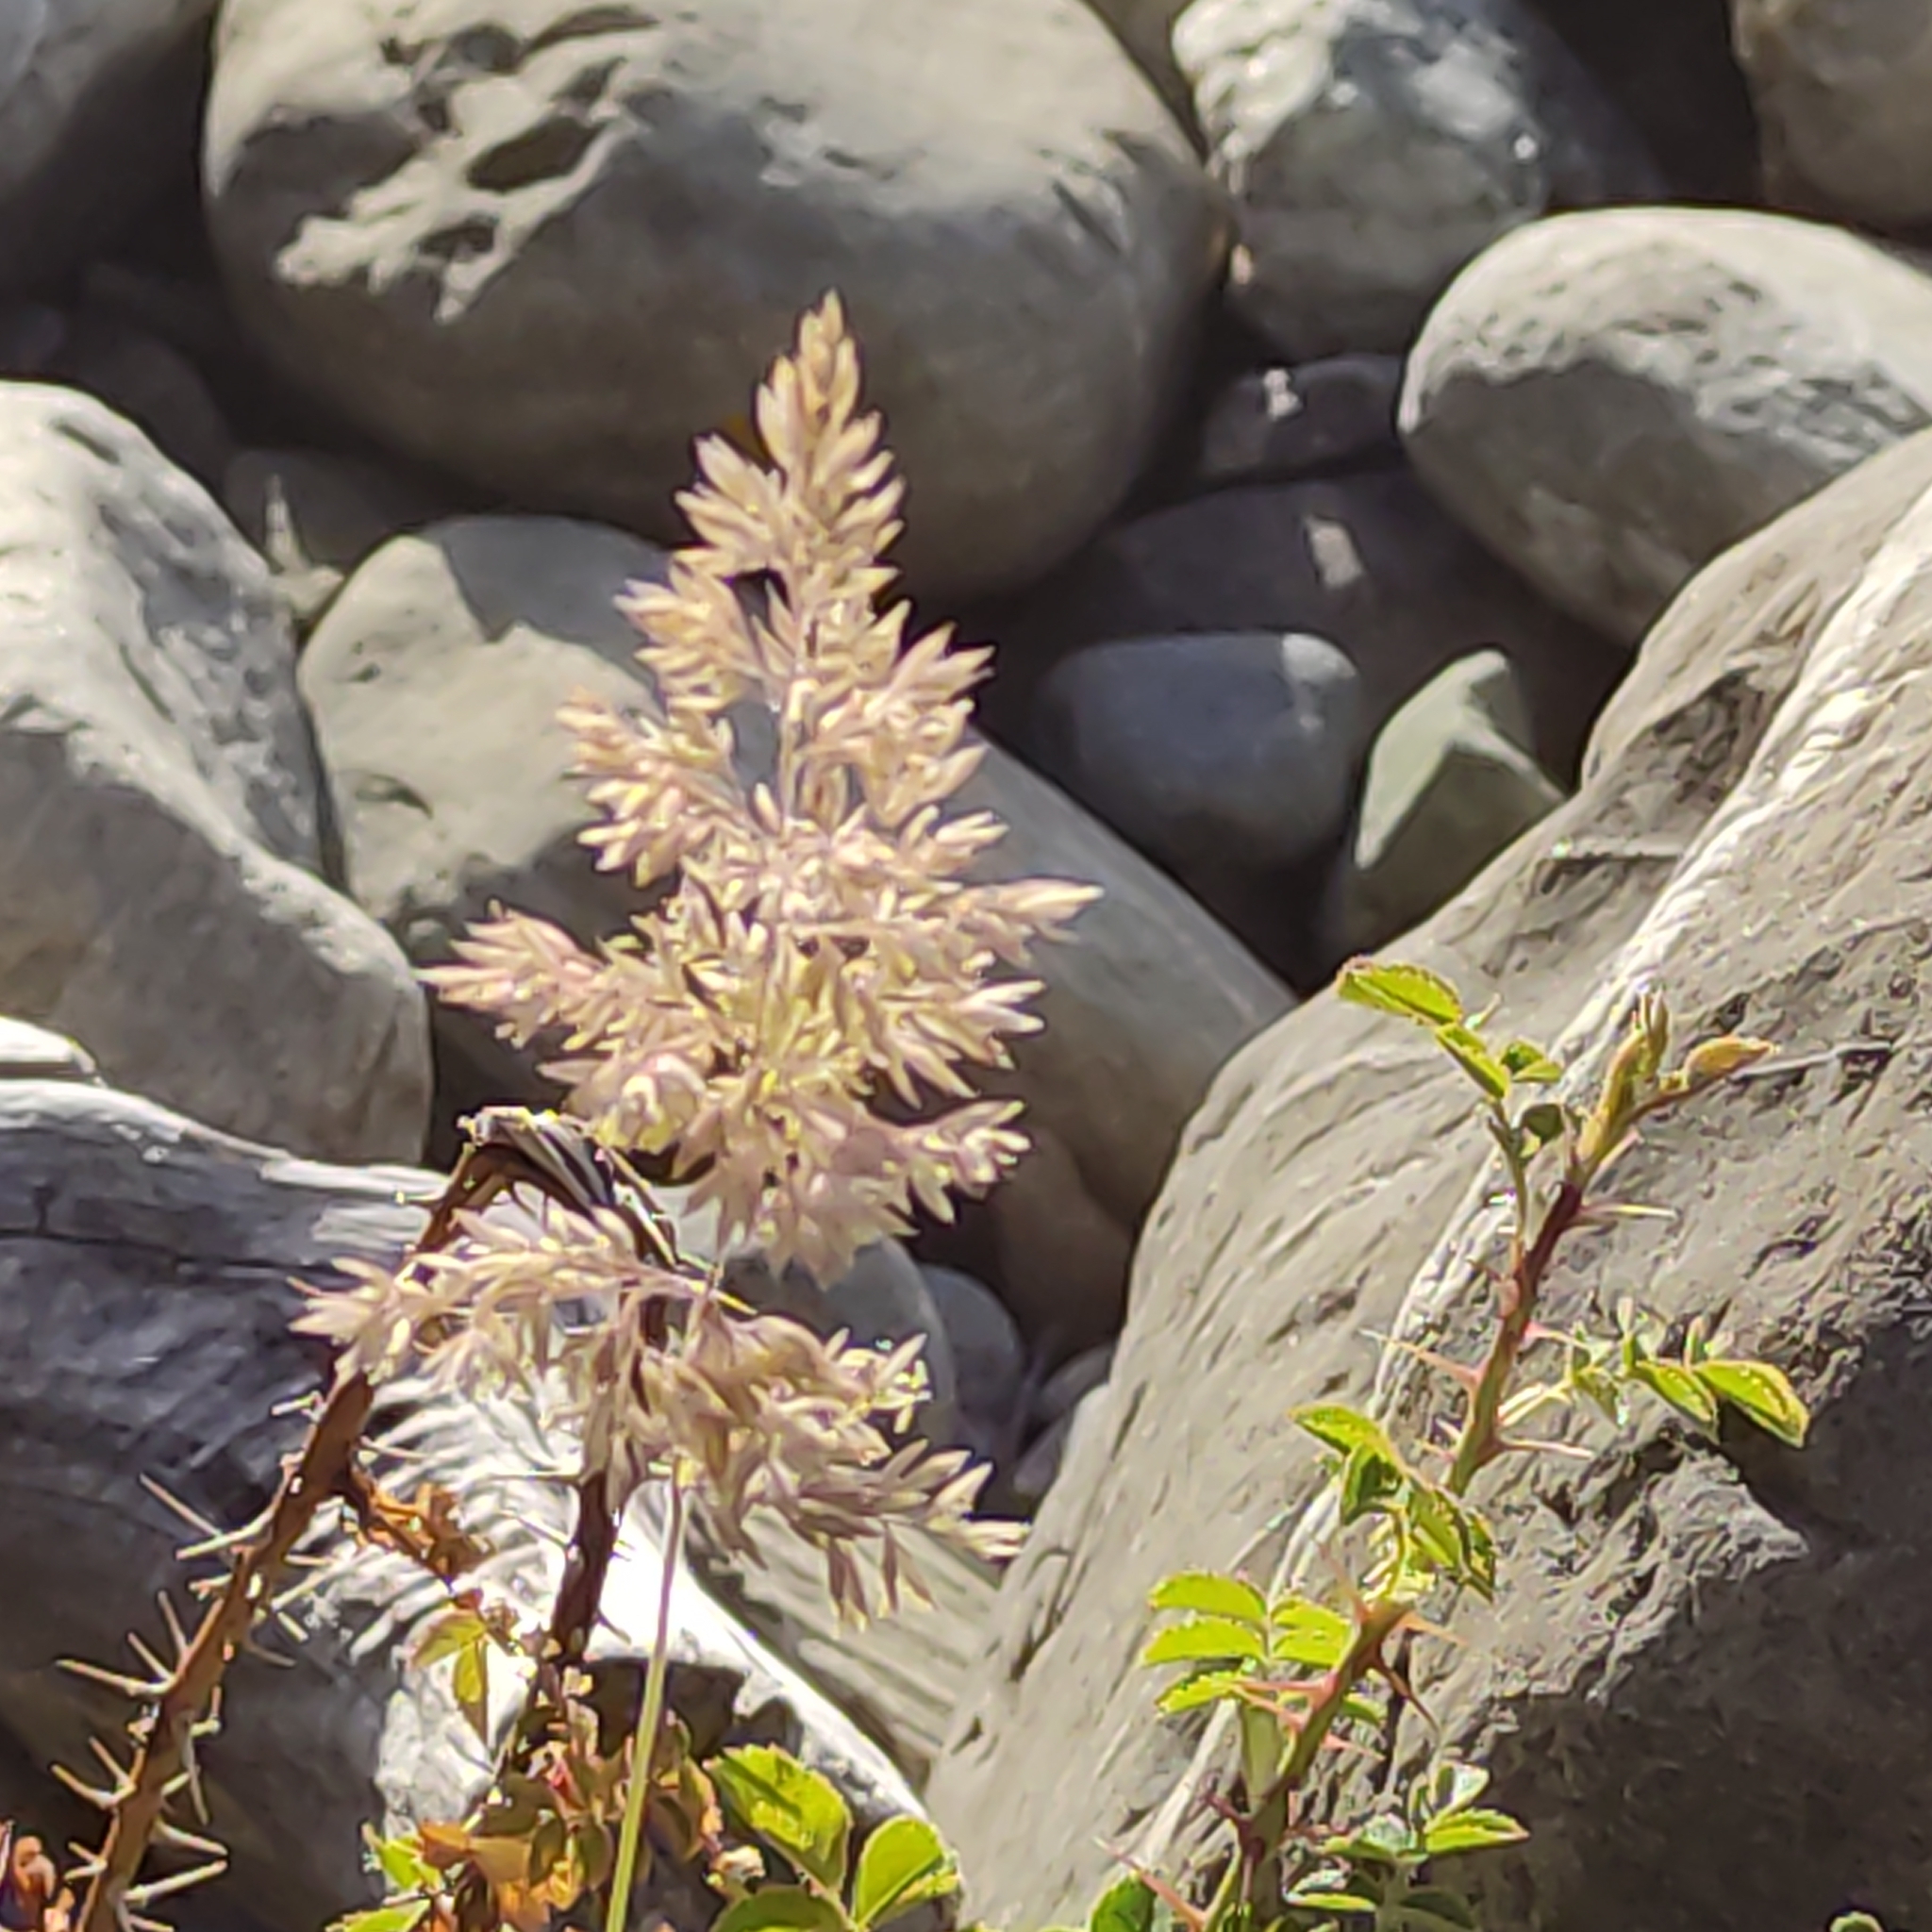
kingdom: Plantae
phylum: Tracheophyta
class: Liliopsida
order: Poales
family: Poaceae
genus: Holcus
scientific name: Holcus lanatus
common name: Yorkshire-fog
